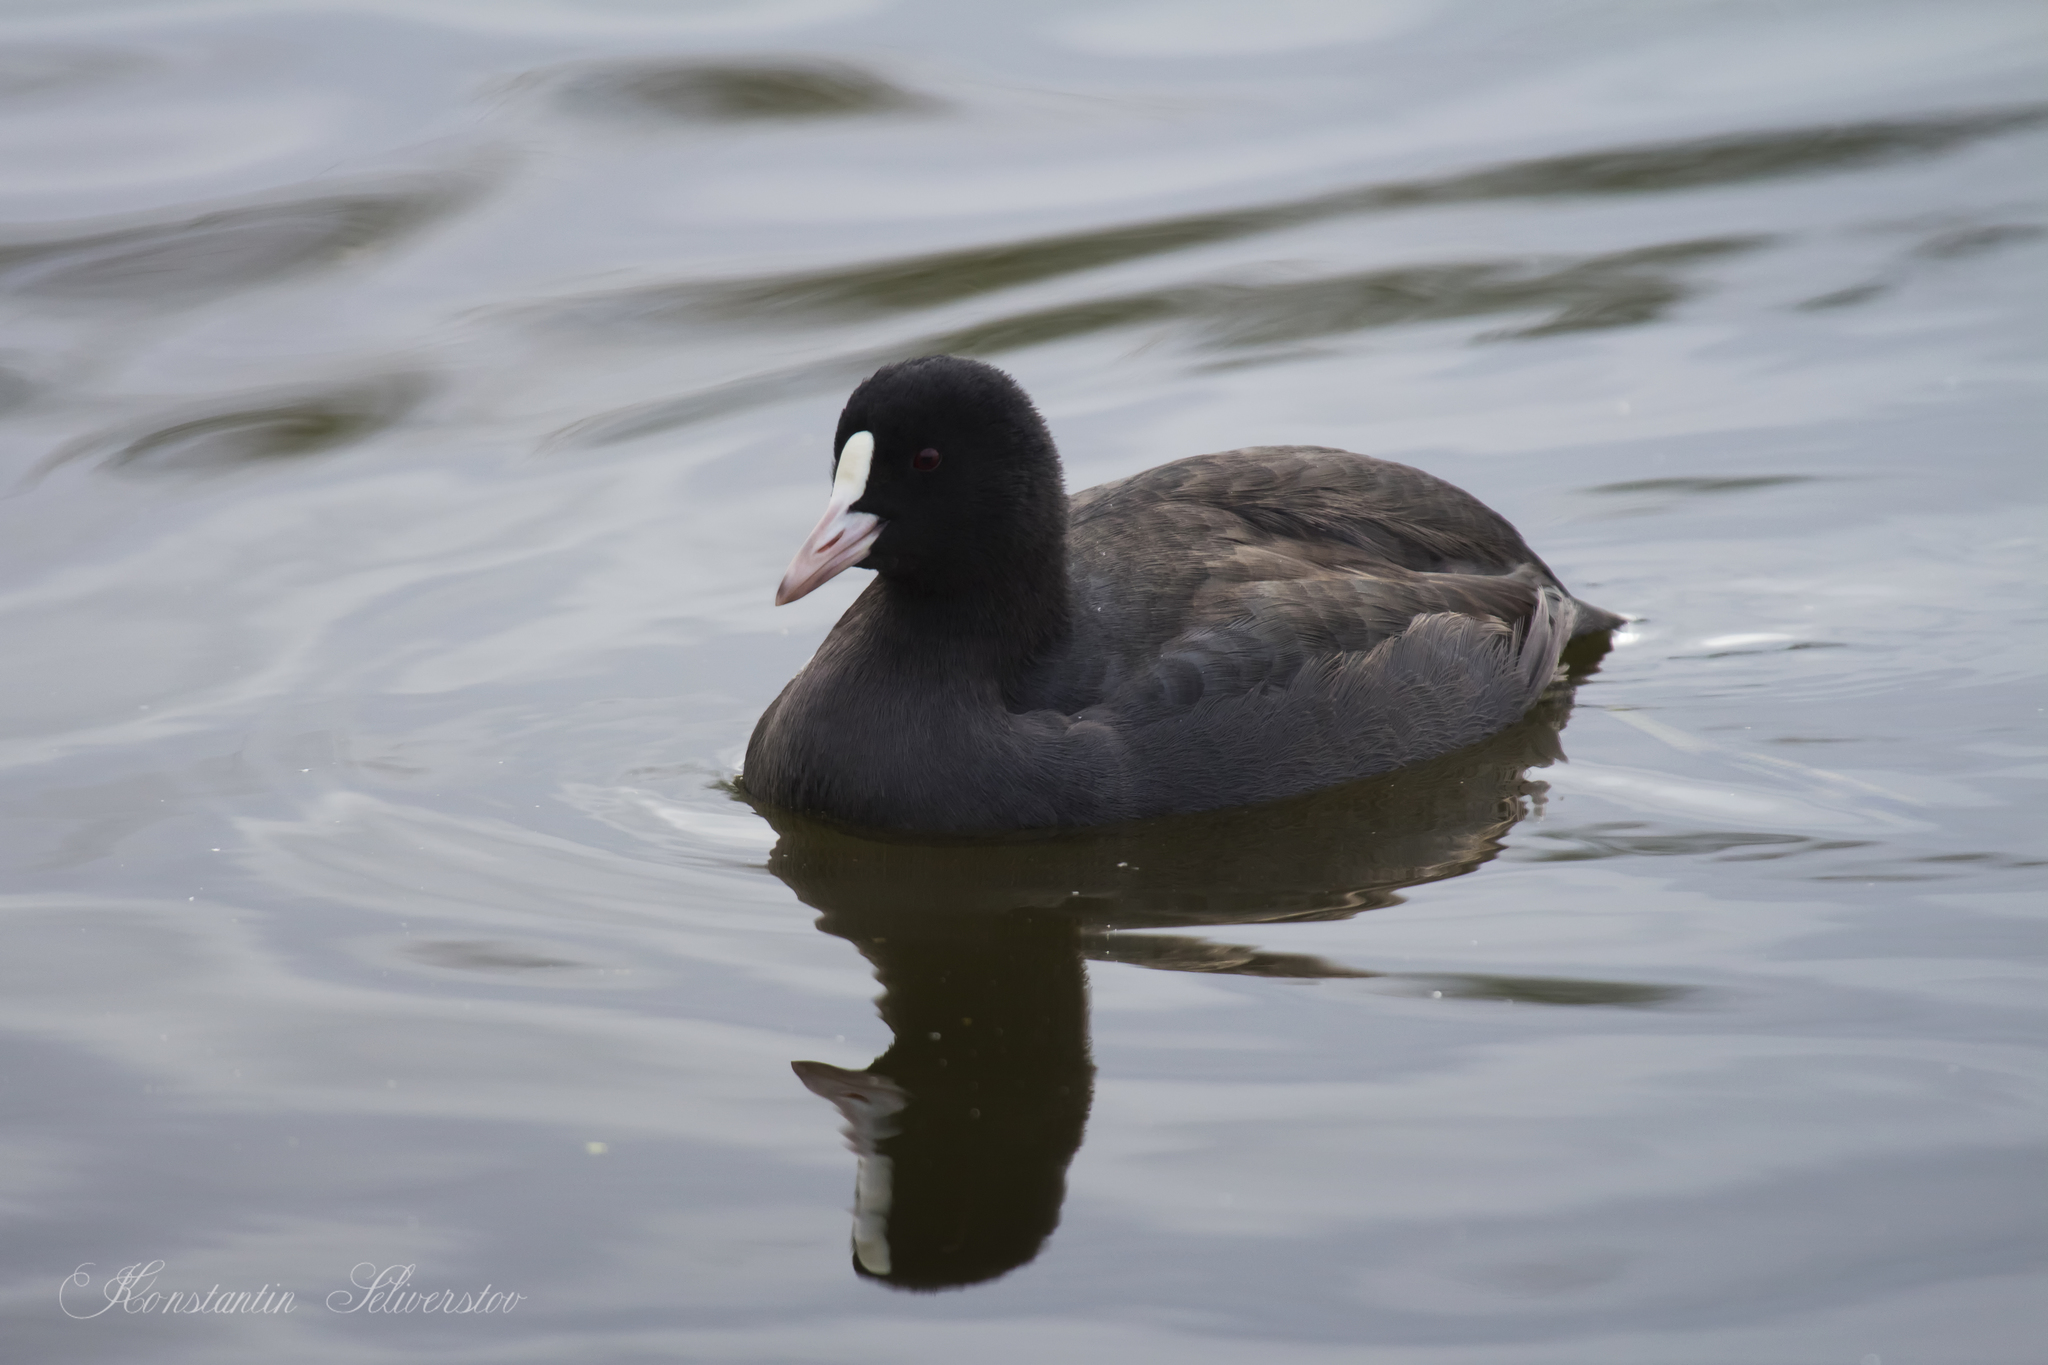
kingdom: Animalia
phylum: Chordata
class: Aves
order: Gruiformes
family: Rallidae
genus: Fulica
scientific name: Fulica atra
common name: Eurasian coot
